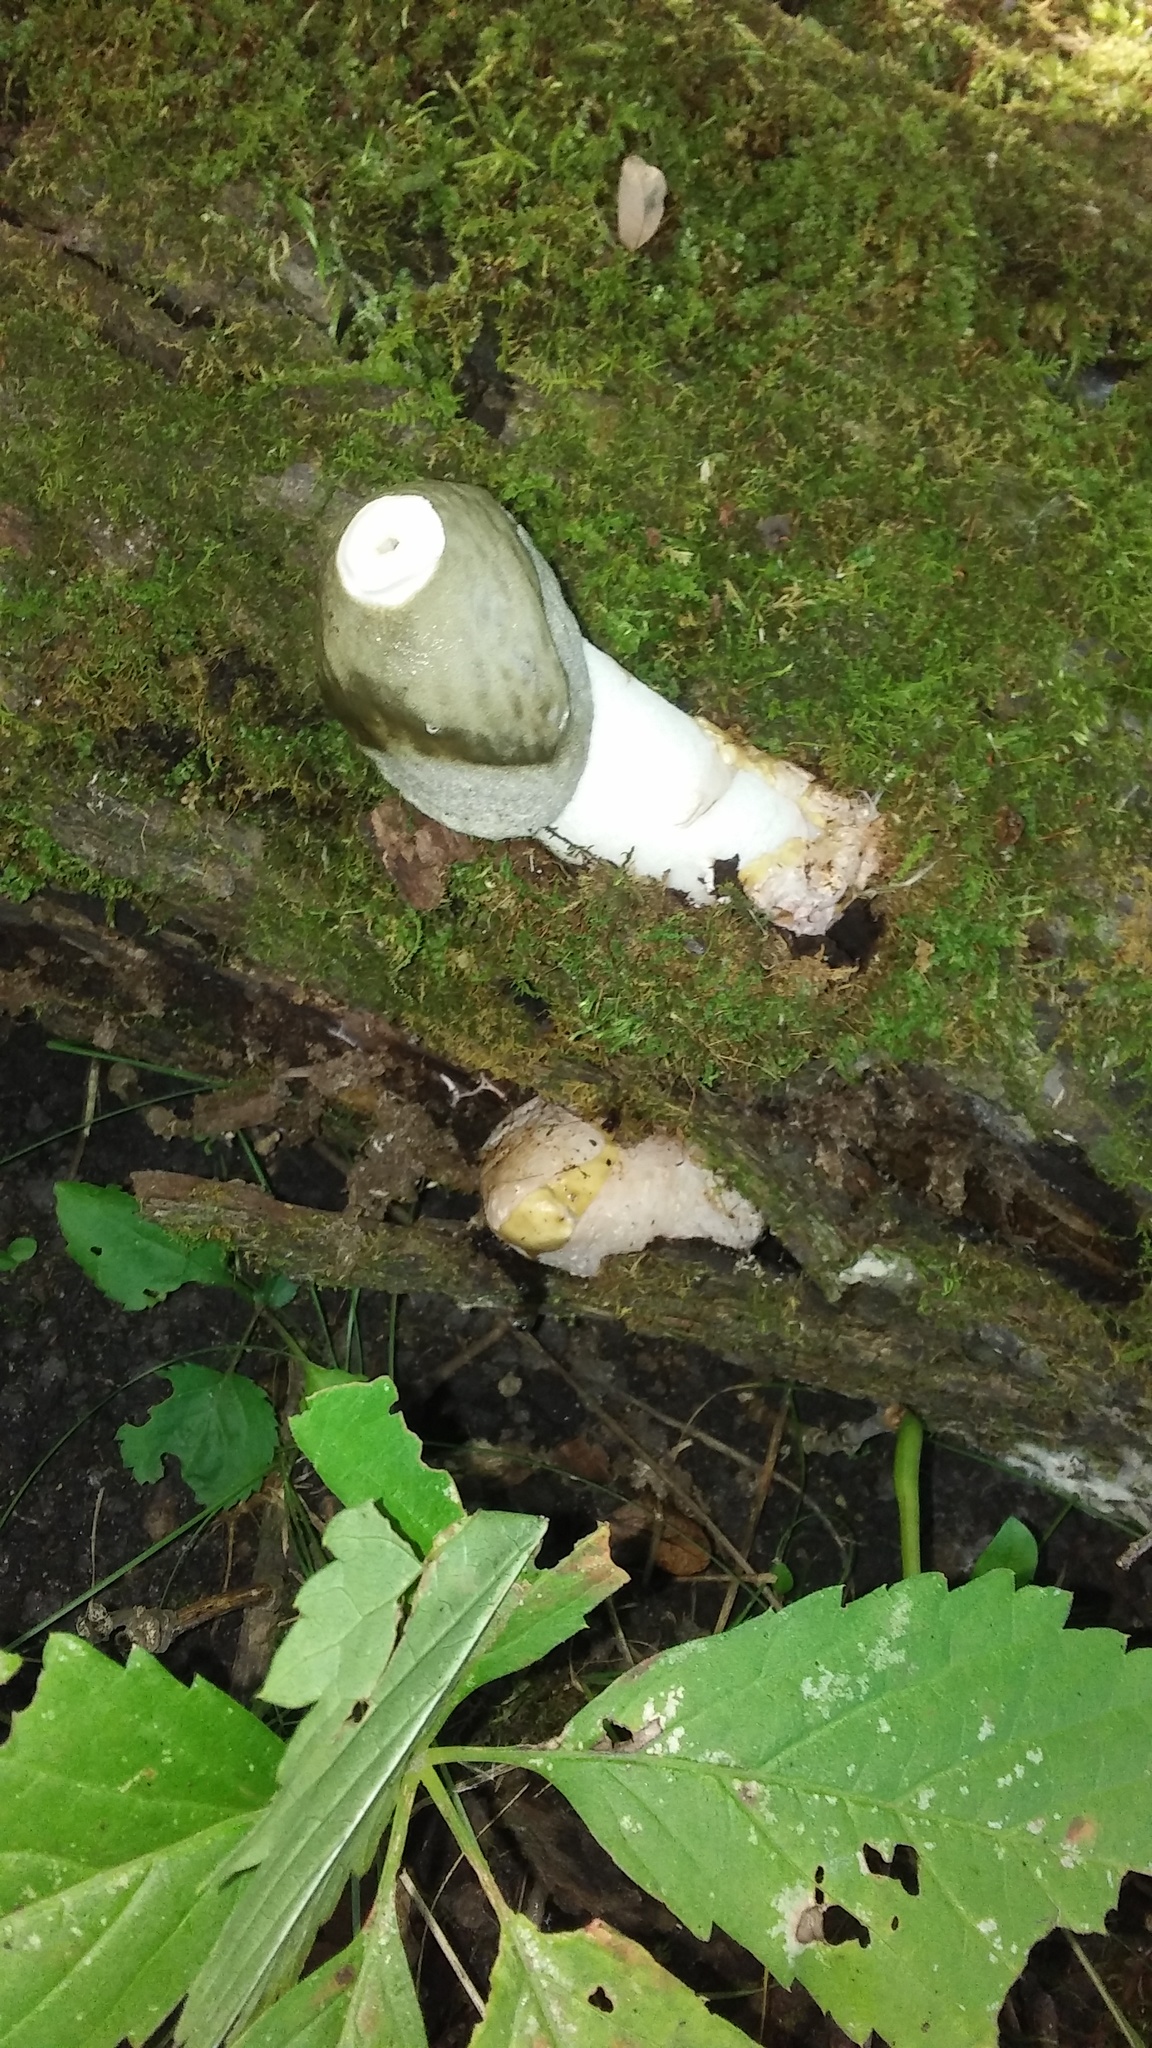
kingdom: Fungi
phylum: Basidiomycota
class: Agaricomycetes
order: Phallales
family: Phallaceae
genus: Phallus
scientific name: Phallus ravenelii
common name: Ravenel's stinkhorn
